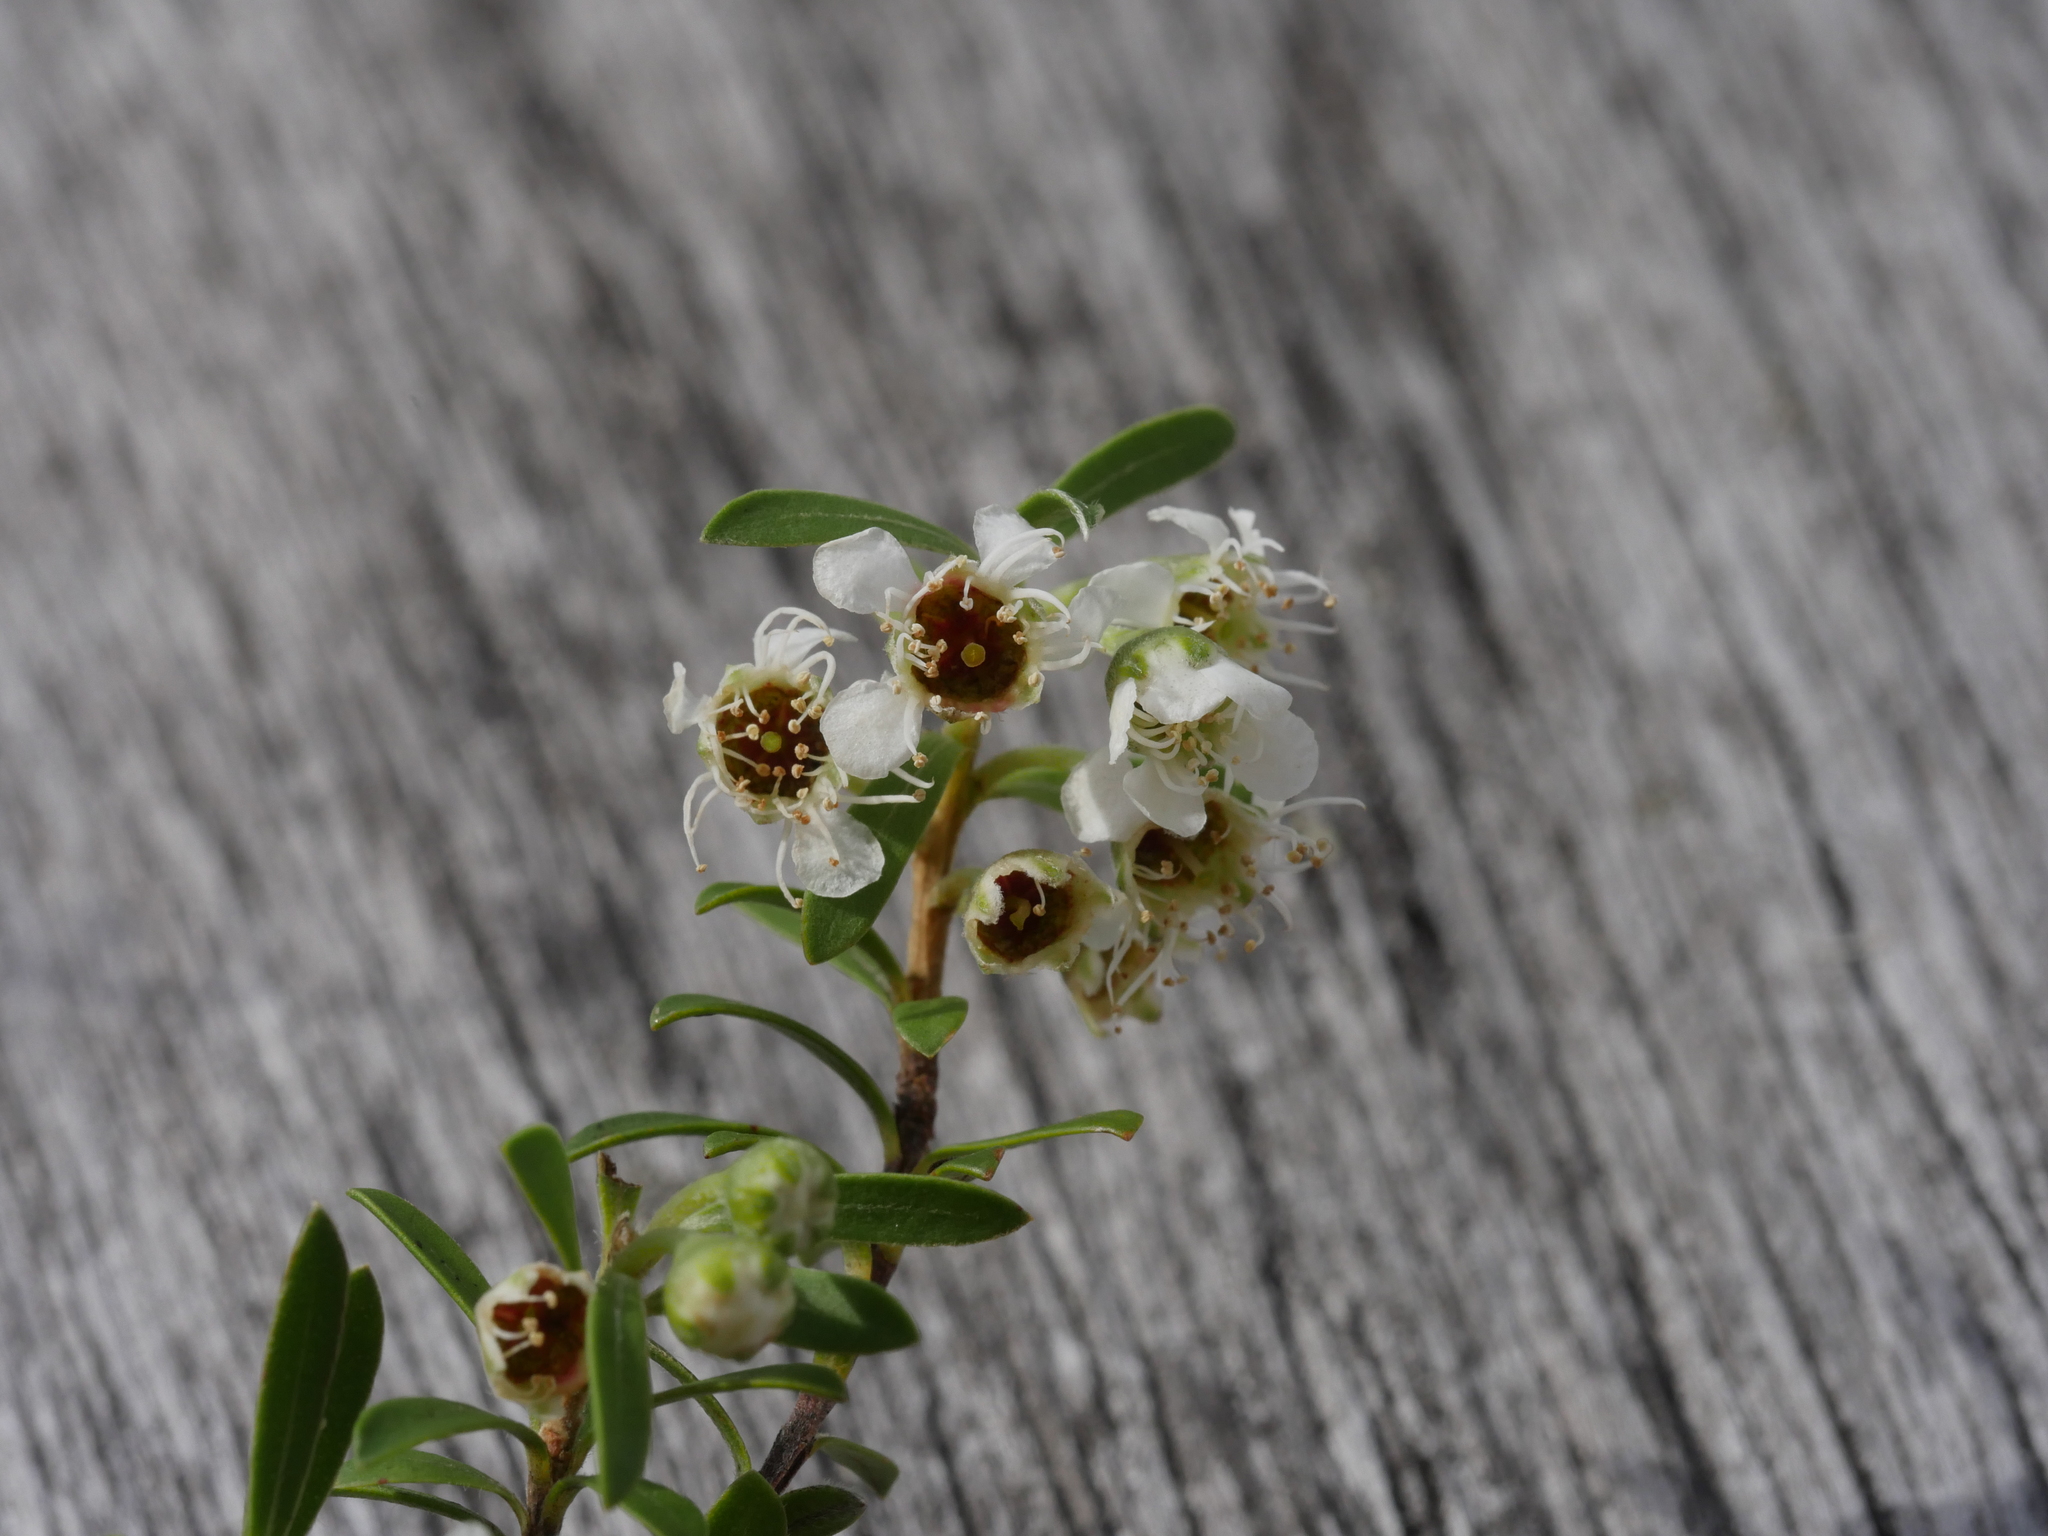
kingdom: Plantae
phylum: Tracheophyta
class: Magnoliopsida
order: Myrtales
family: Myrtaceae
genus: Kunzea
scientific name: Kunzea robusta
